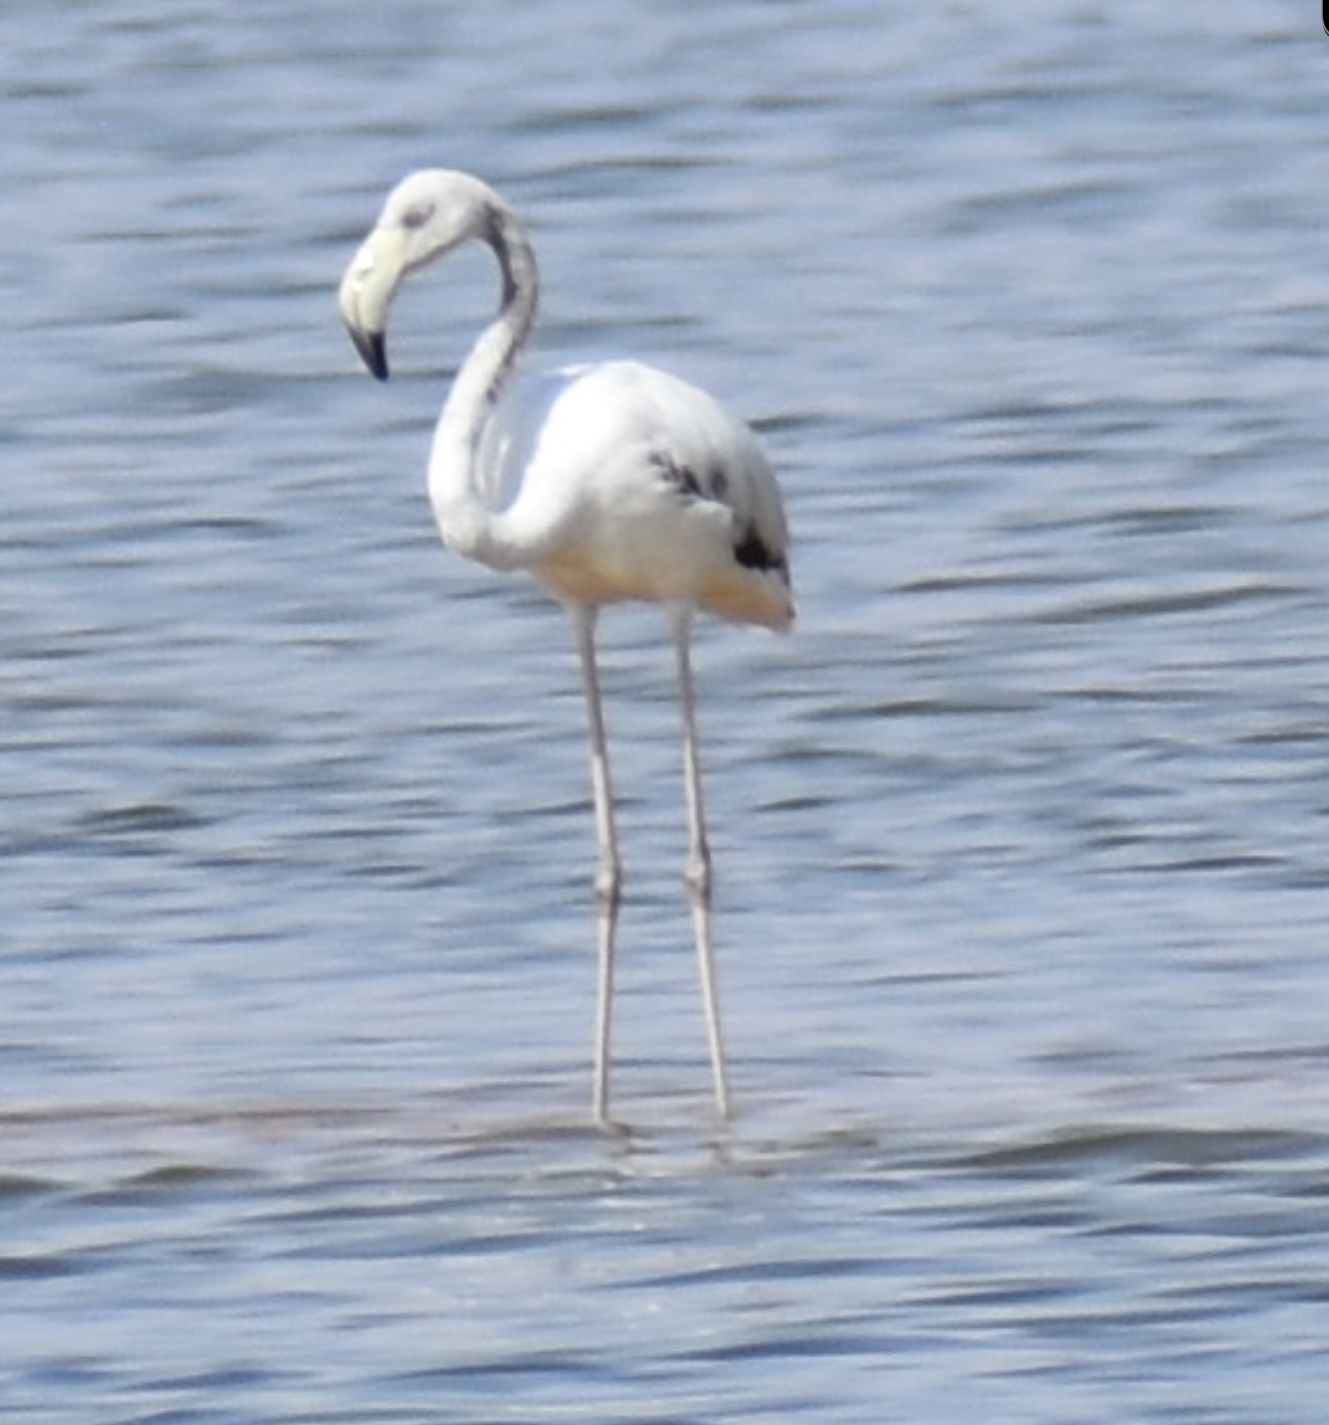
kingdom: Animalia
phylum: Chordata
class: Aves
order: Phoenicopteriformes
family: Phoenicopteridae
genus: Phoenicopterus
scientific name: Phoenicopterus roseus
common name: Greater flamingo
